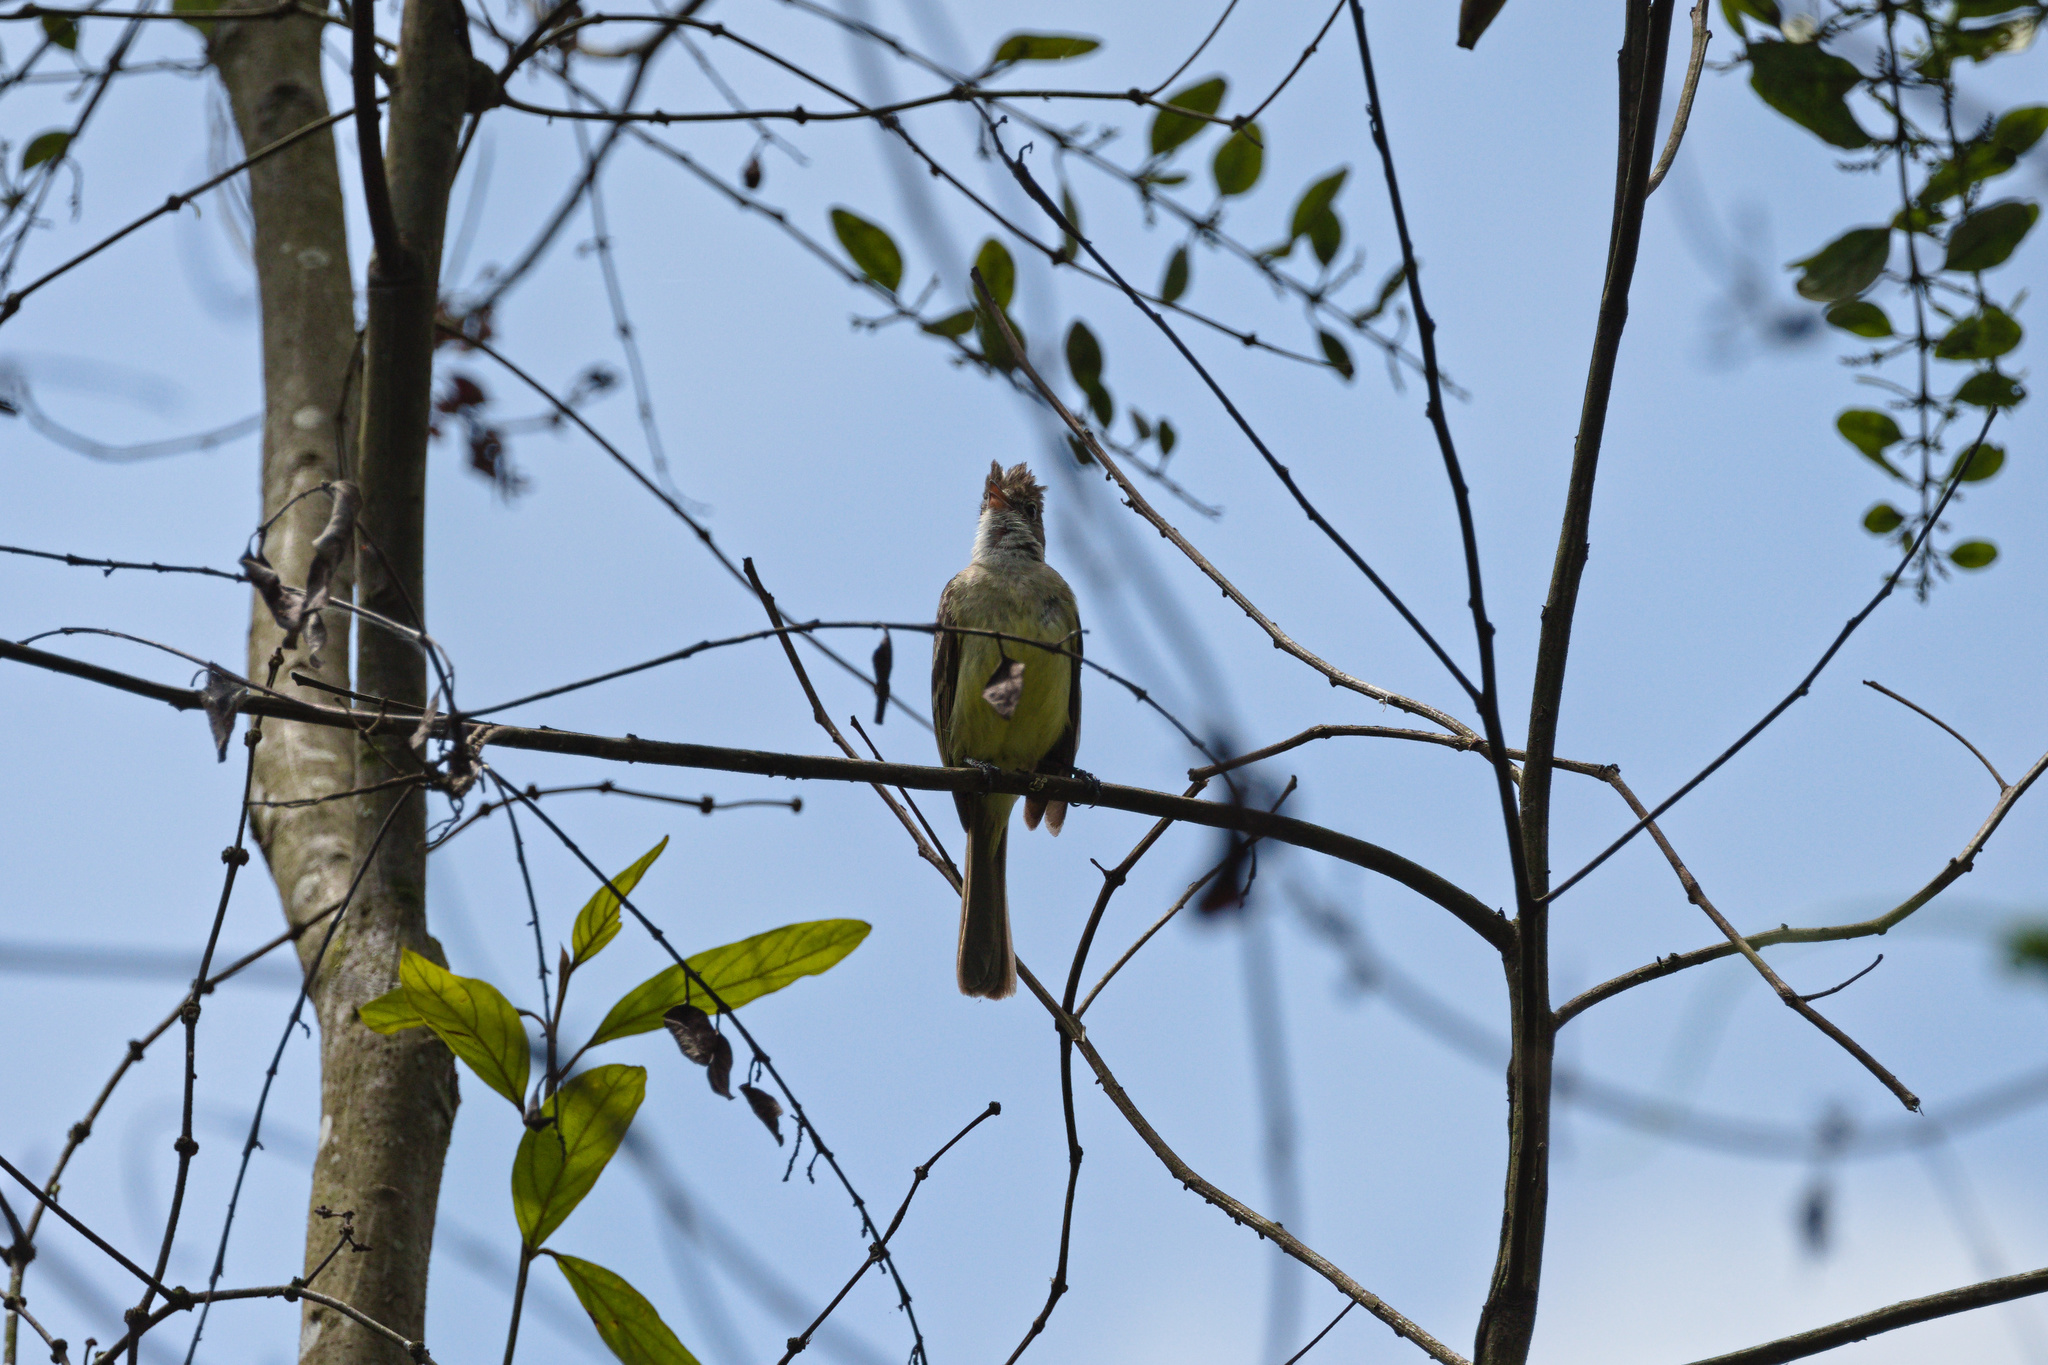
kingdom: Animalia
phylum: Chordata
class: Aves
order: Passeriformes
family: Tyrannidae
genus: Elaenia
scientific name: Elaenia flavogaster
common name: Yellow-bellied elaenia
